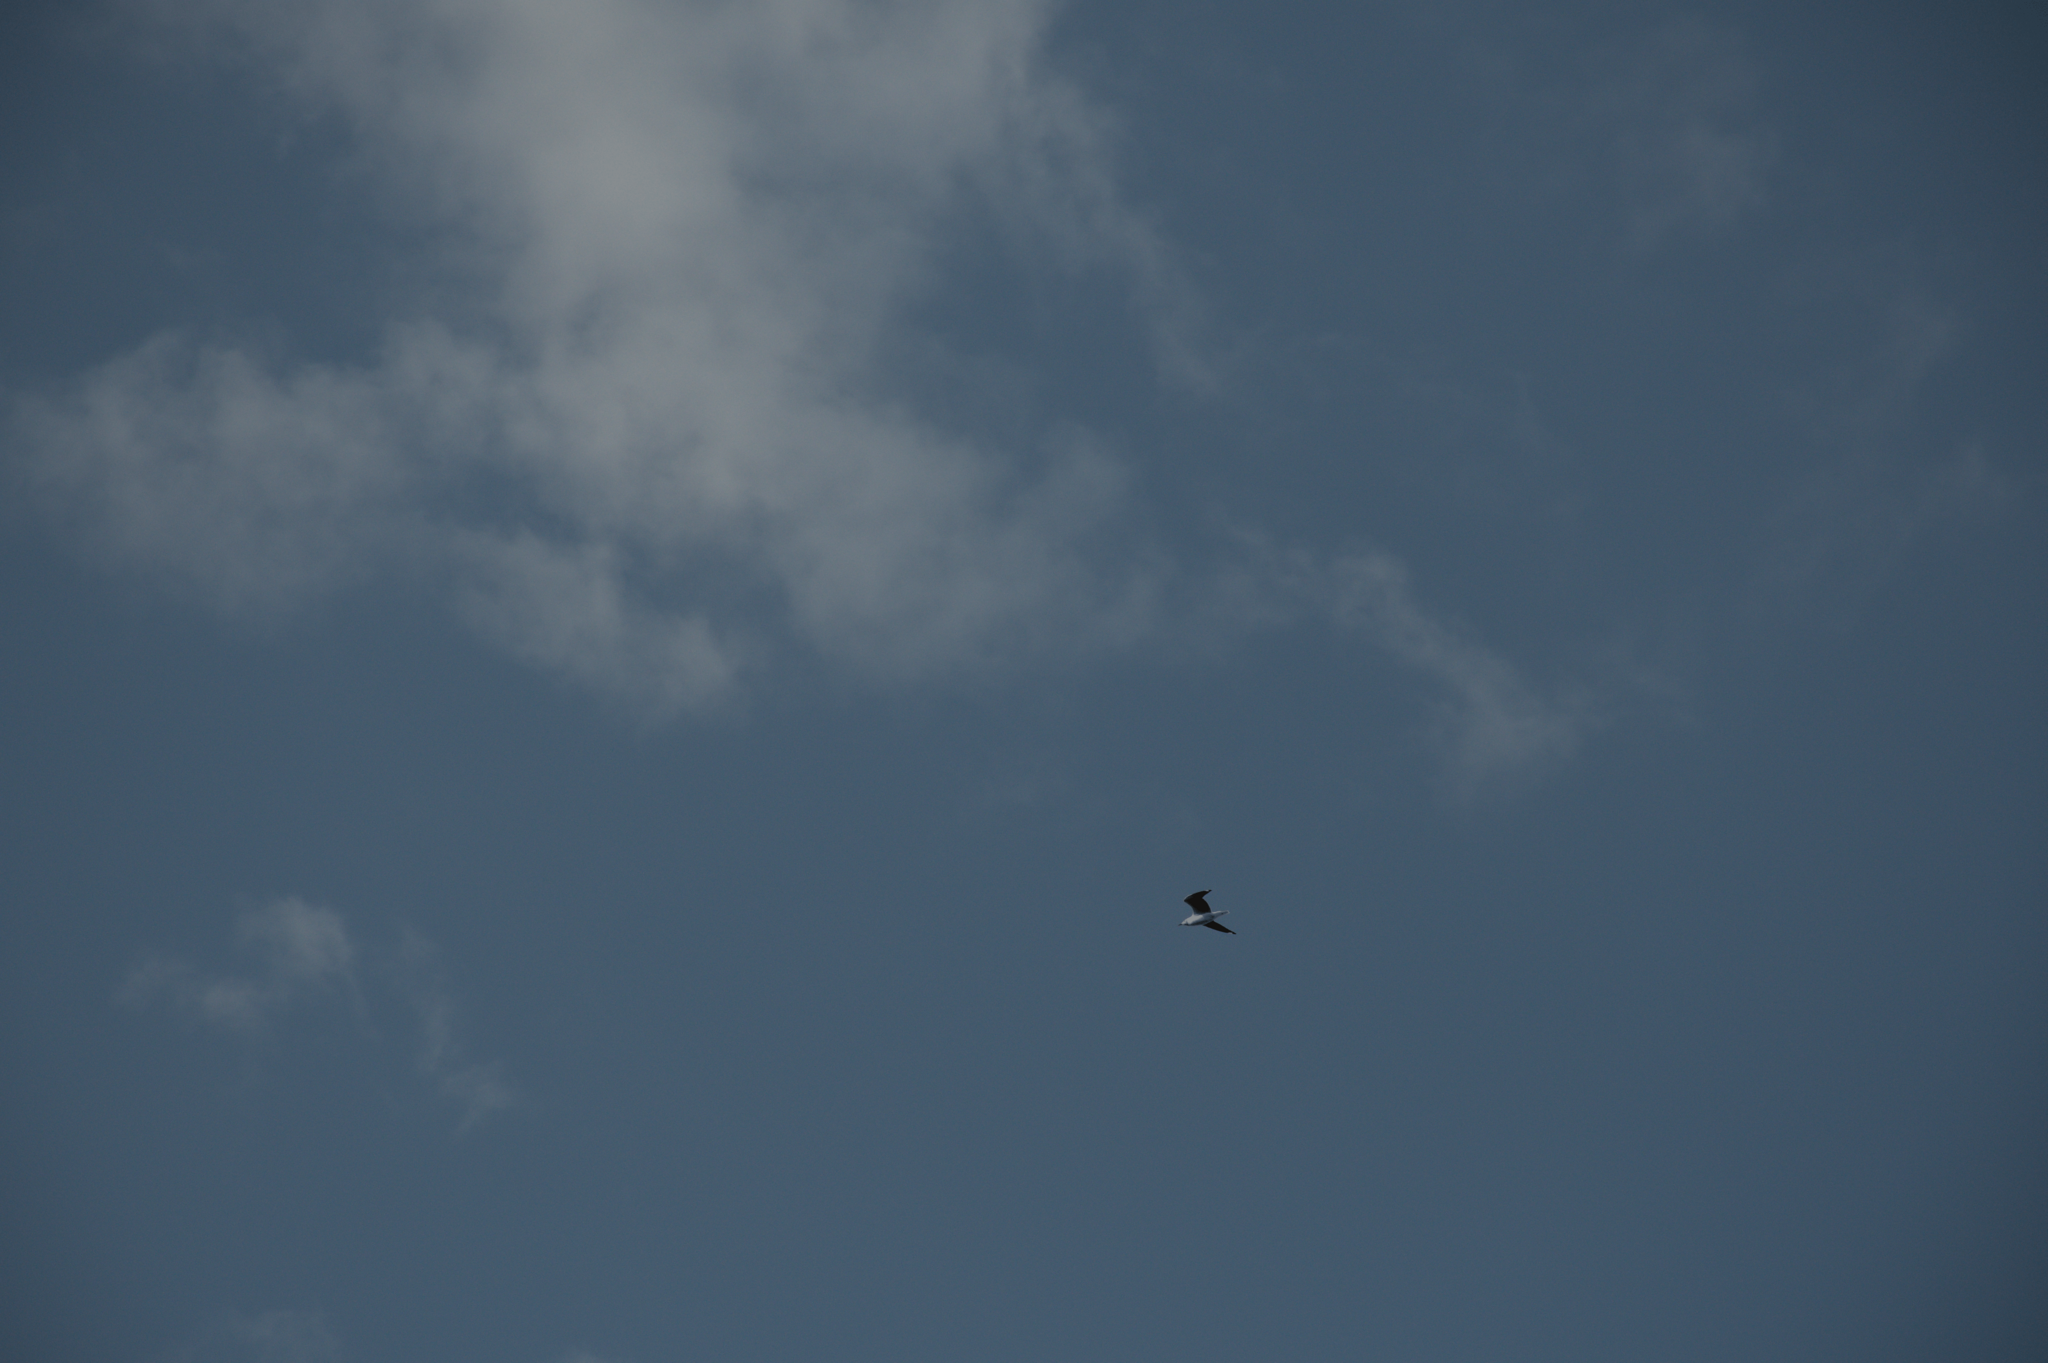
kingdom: Animalia
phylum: Chordata
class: Aves
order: Charadriiformes
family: Laridae
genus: Chroicocephalus
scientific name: Chroicocephalus cirrocephalus
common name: Grey-headed gull
